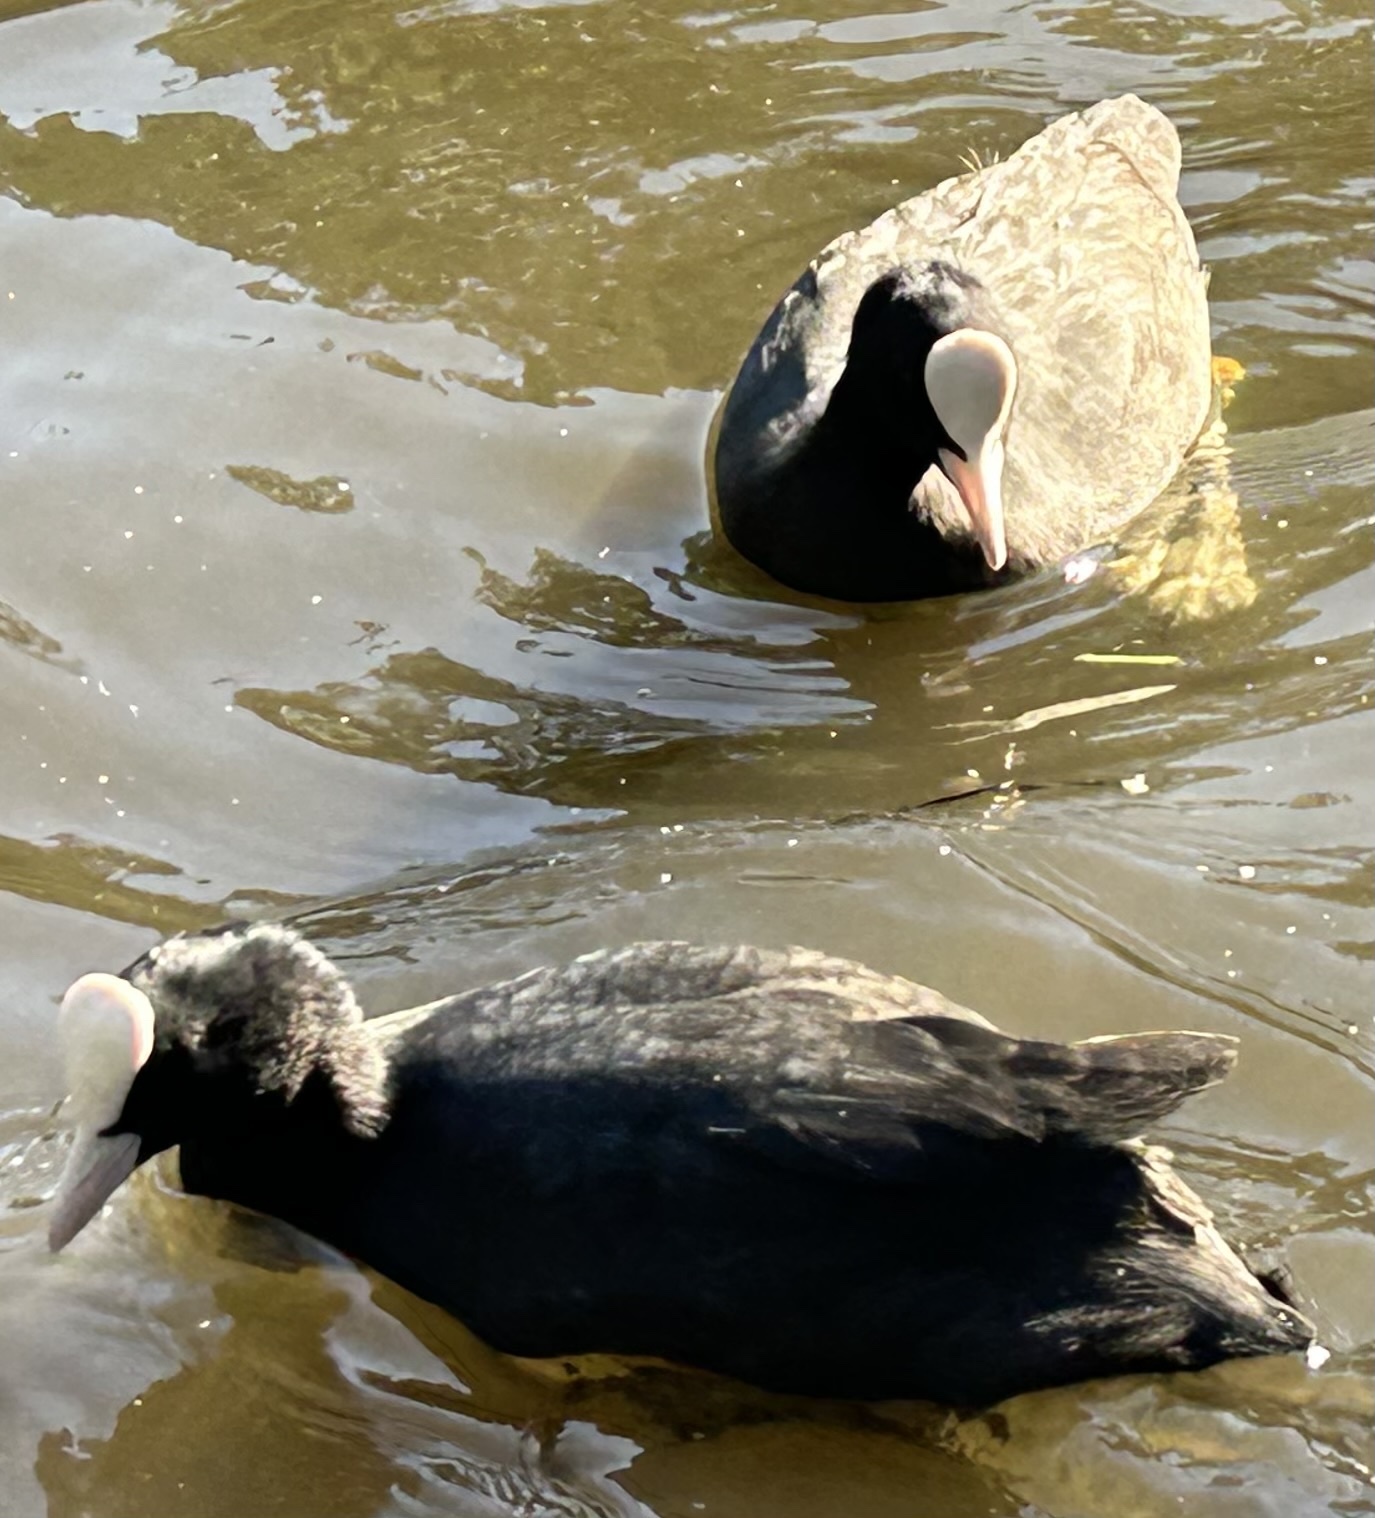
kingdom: Animalia
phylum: Chordata
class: Aves
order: Gruiformes
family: Rallidae
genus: Fulica
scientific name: Fulica atra
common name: Eurasian coot
